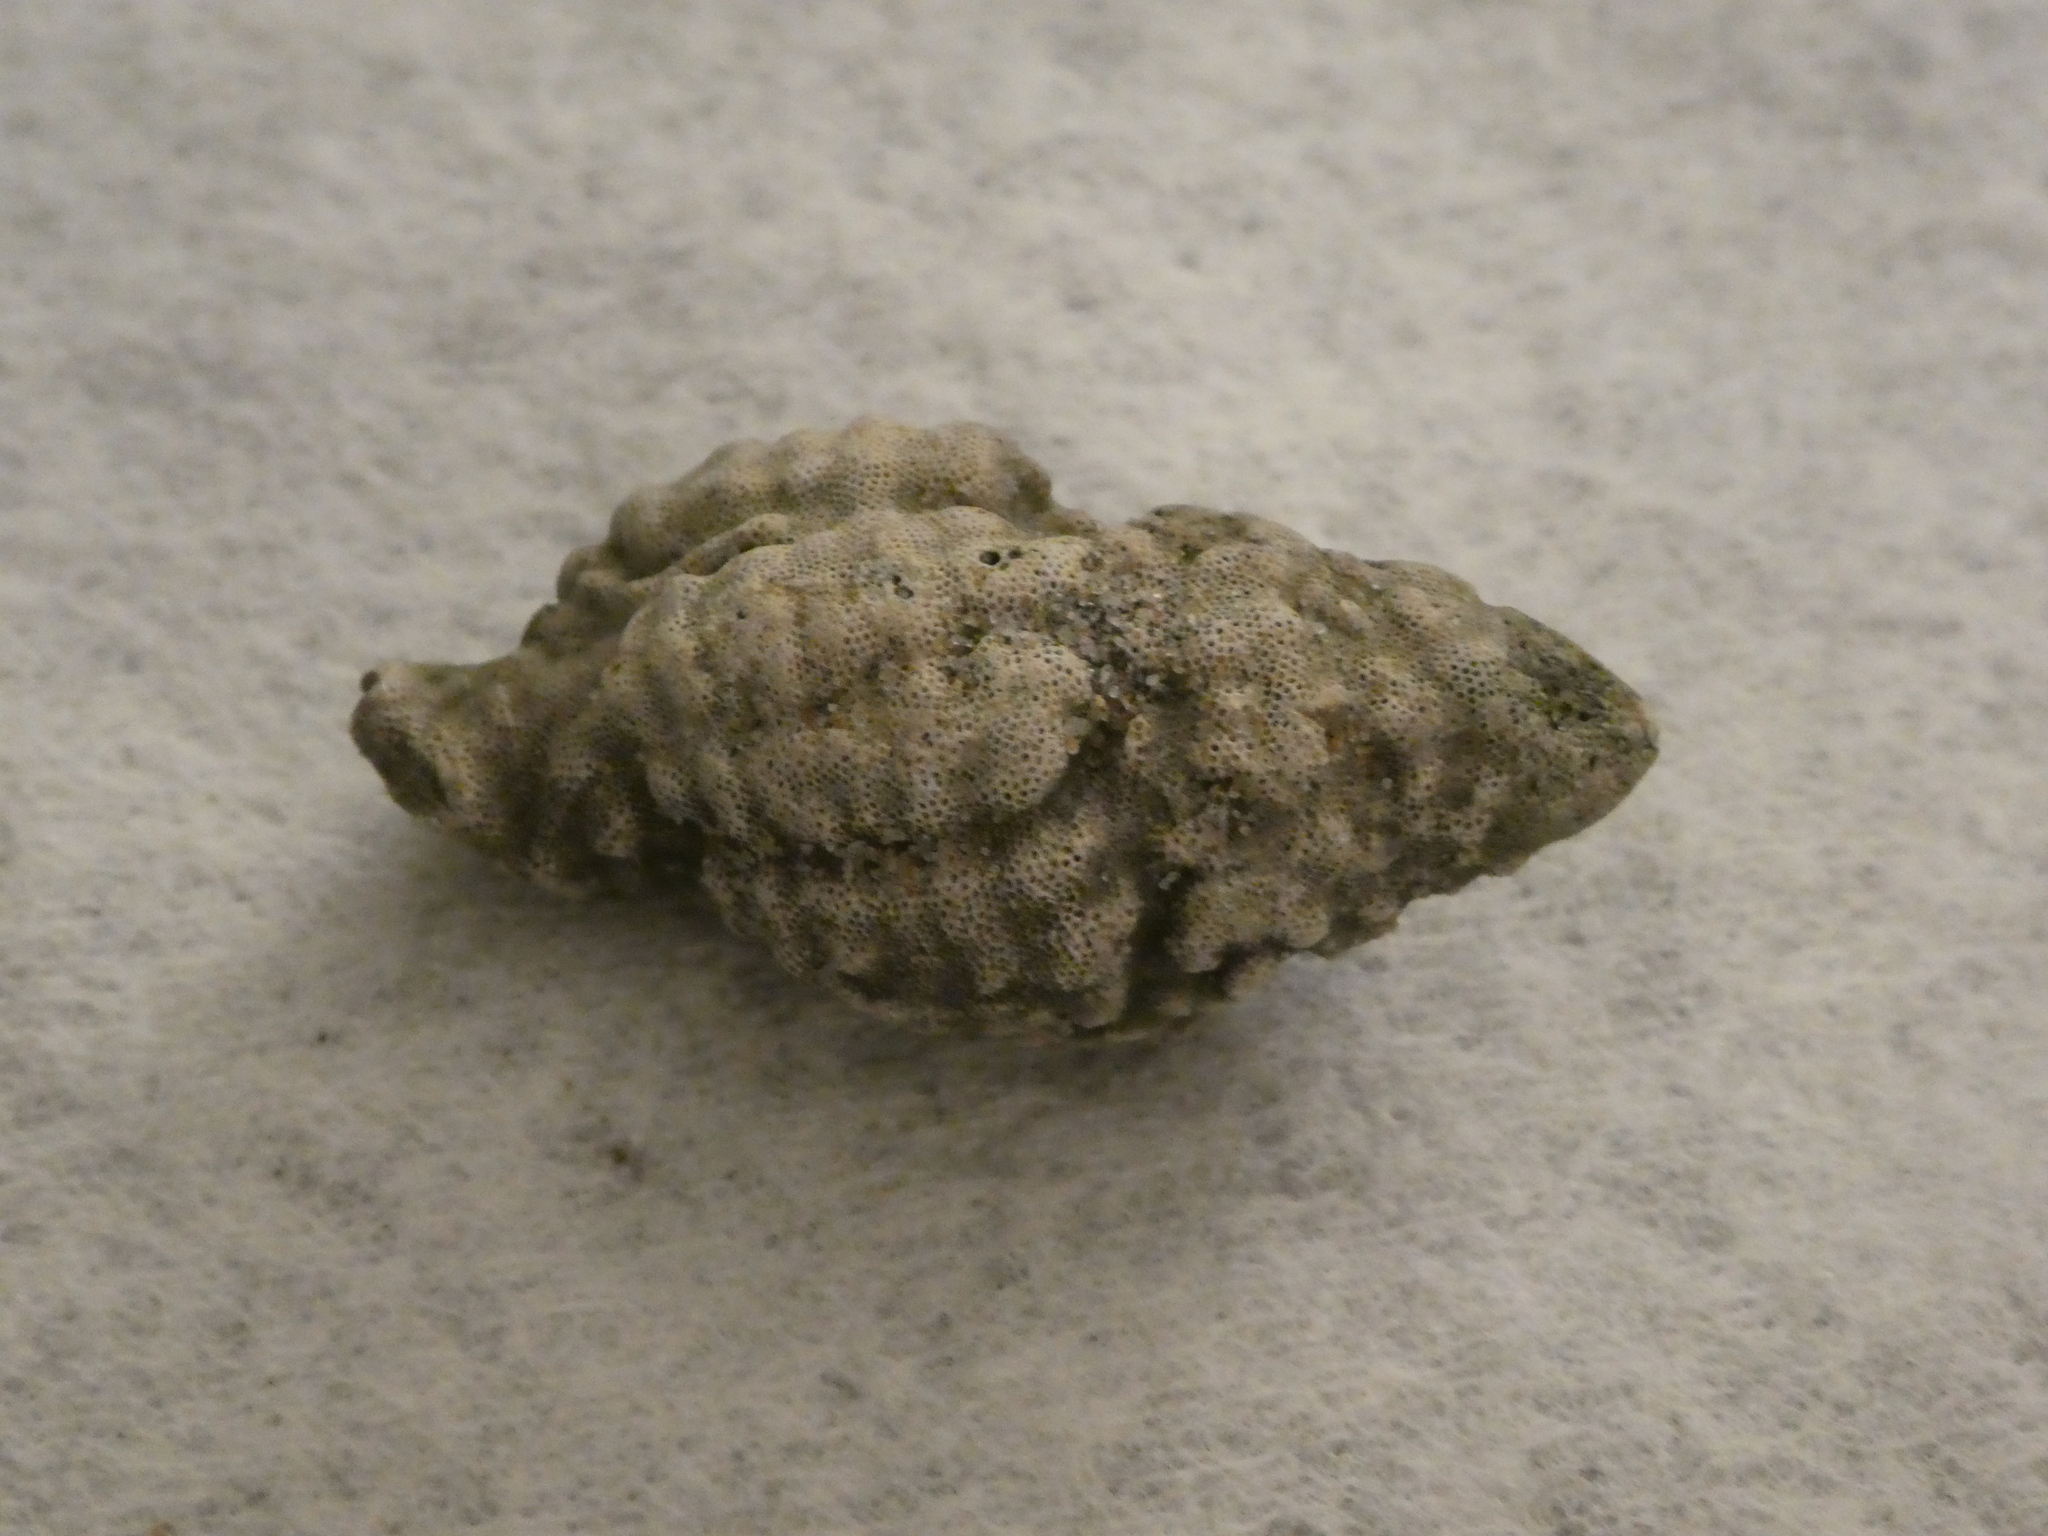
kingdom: Animalia
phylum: Mollusca
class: Gastropoda
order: Neogastropoda
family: Muricidae
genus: Roperia
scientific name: Roperia poulsoni
